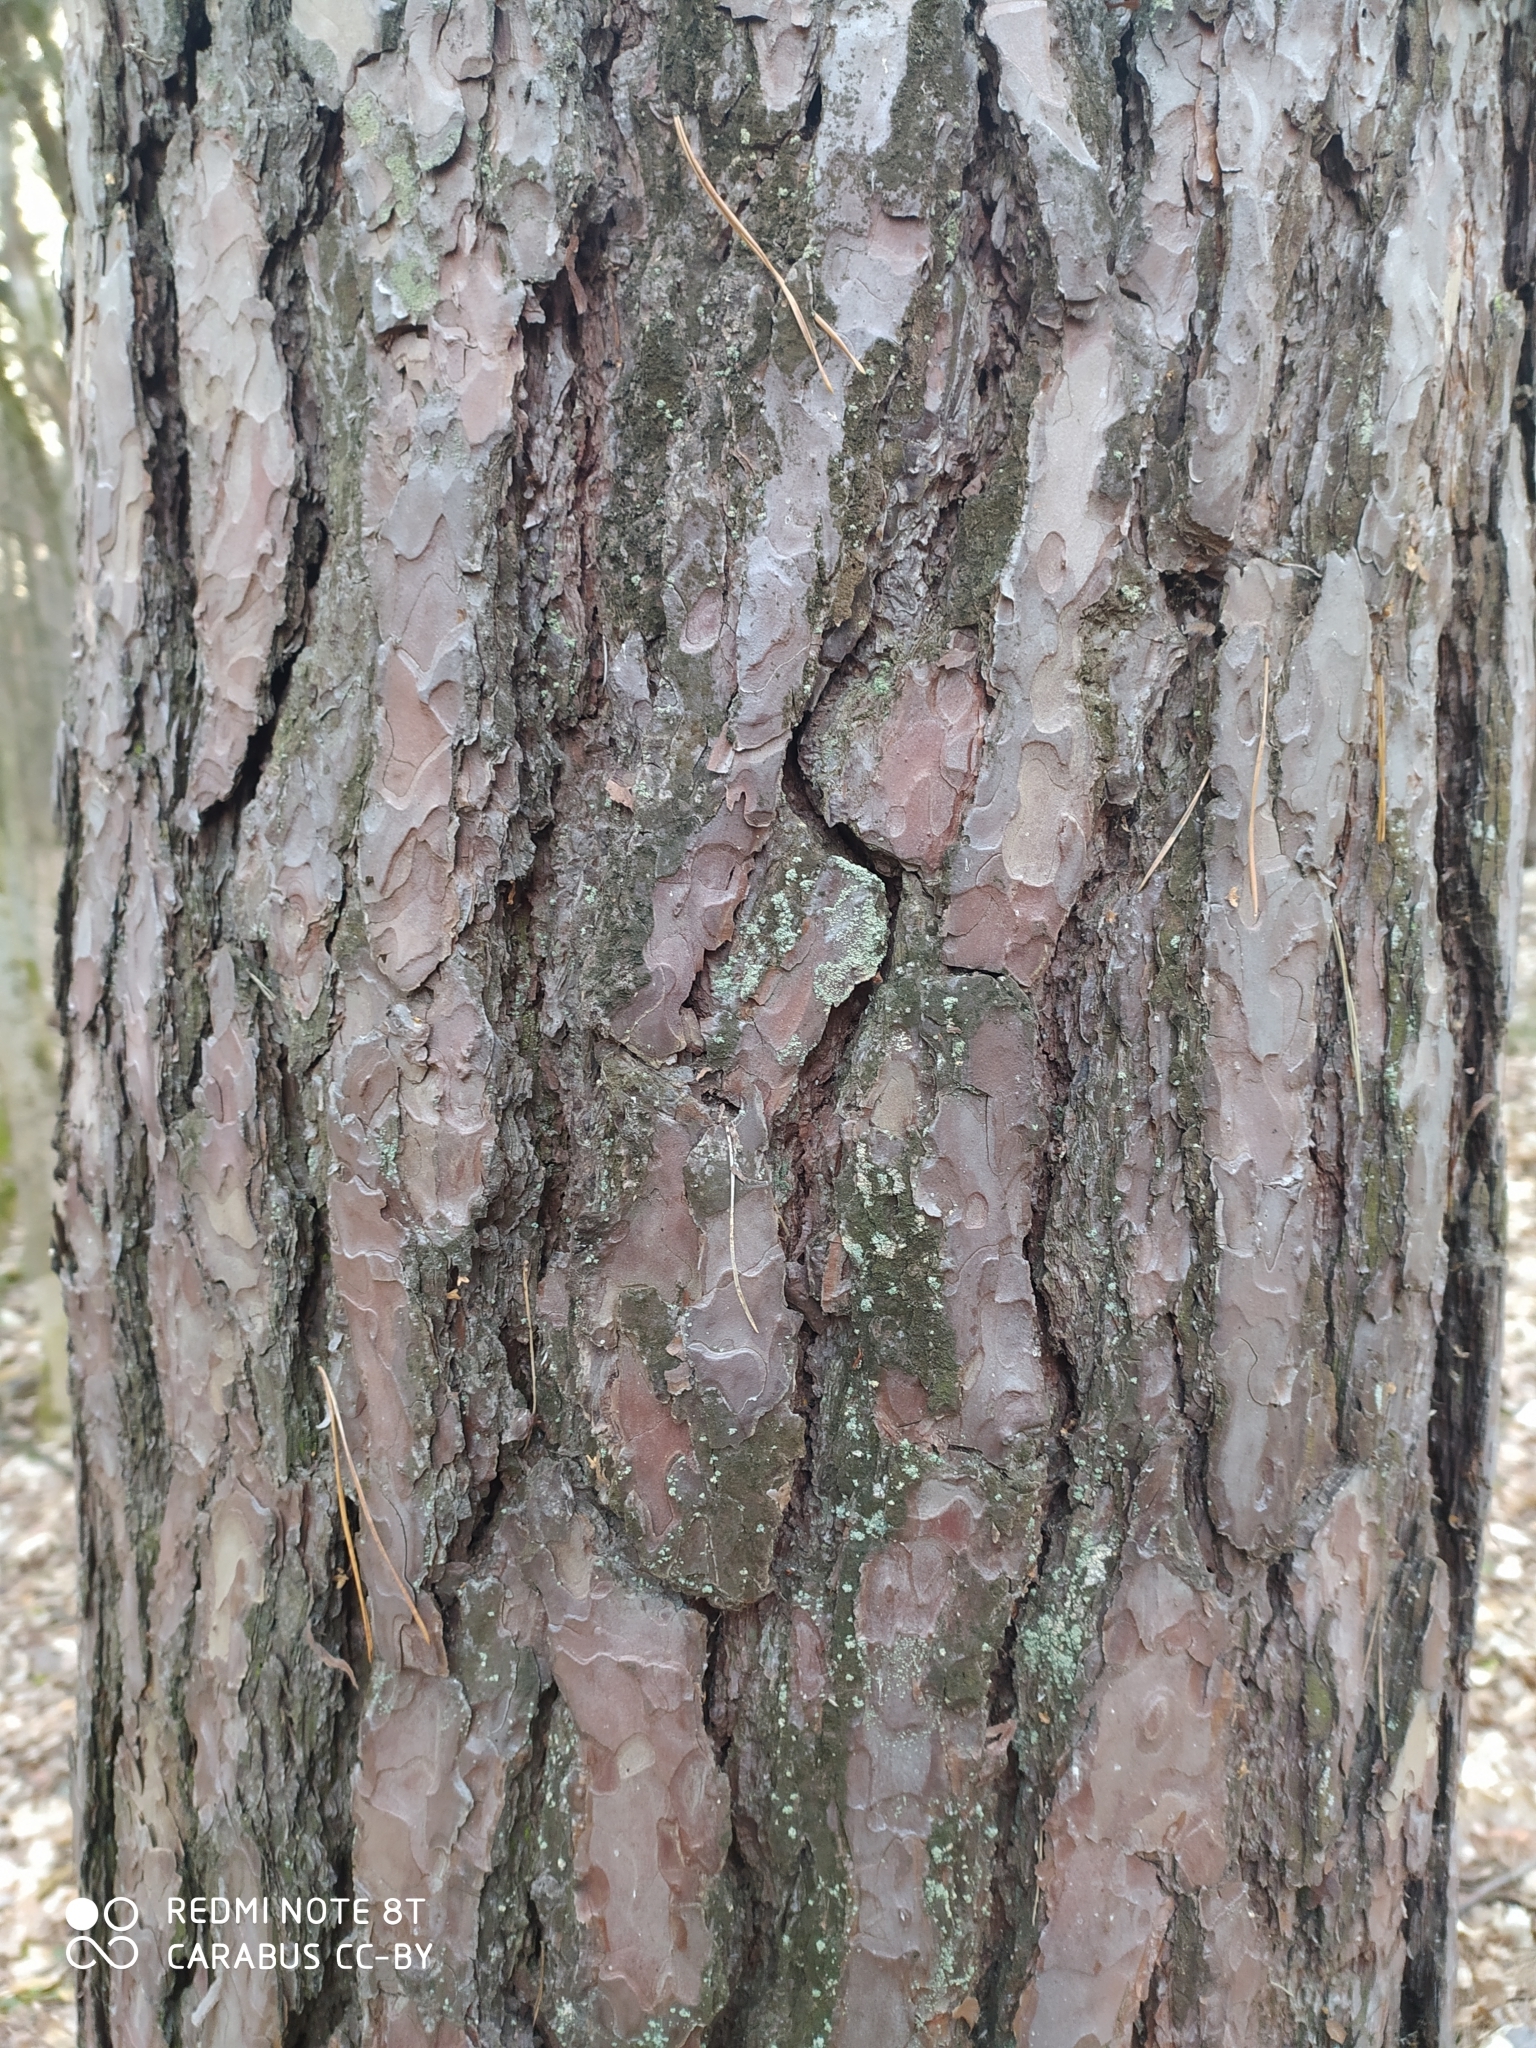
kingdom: Plantae
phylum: Tracheophyta
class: Pinopsida
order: Pinales
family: Pinaceae
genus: Pinus
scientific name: Pinus sylvestris
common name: Scots pine
